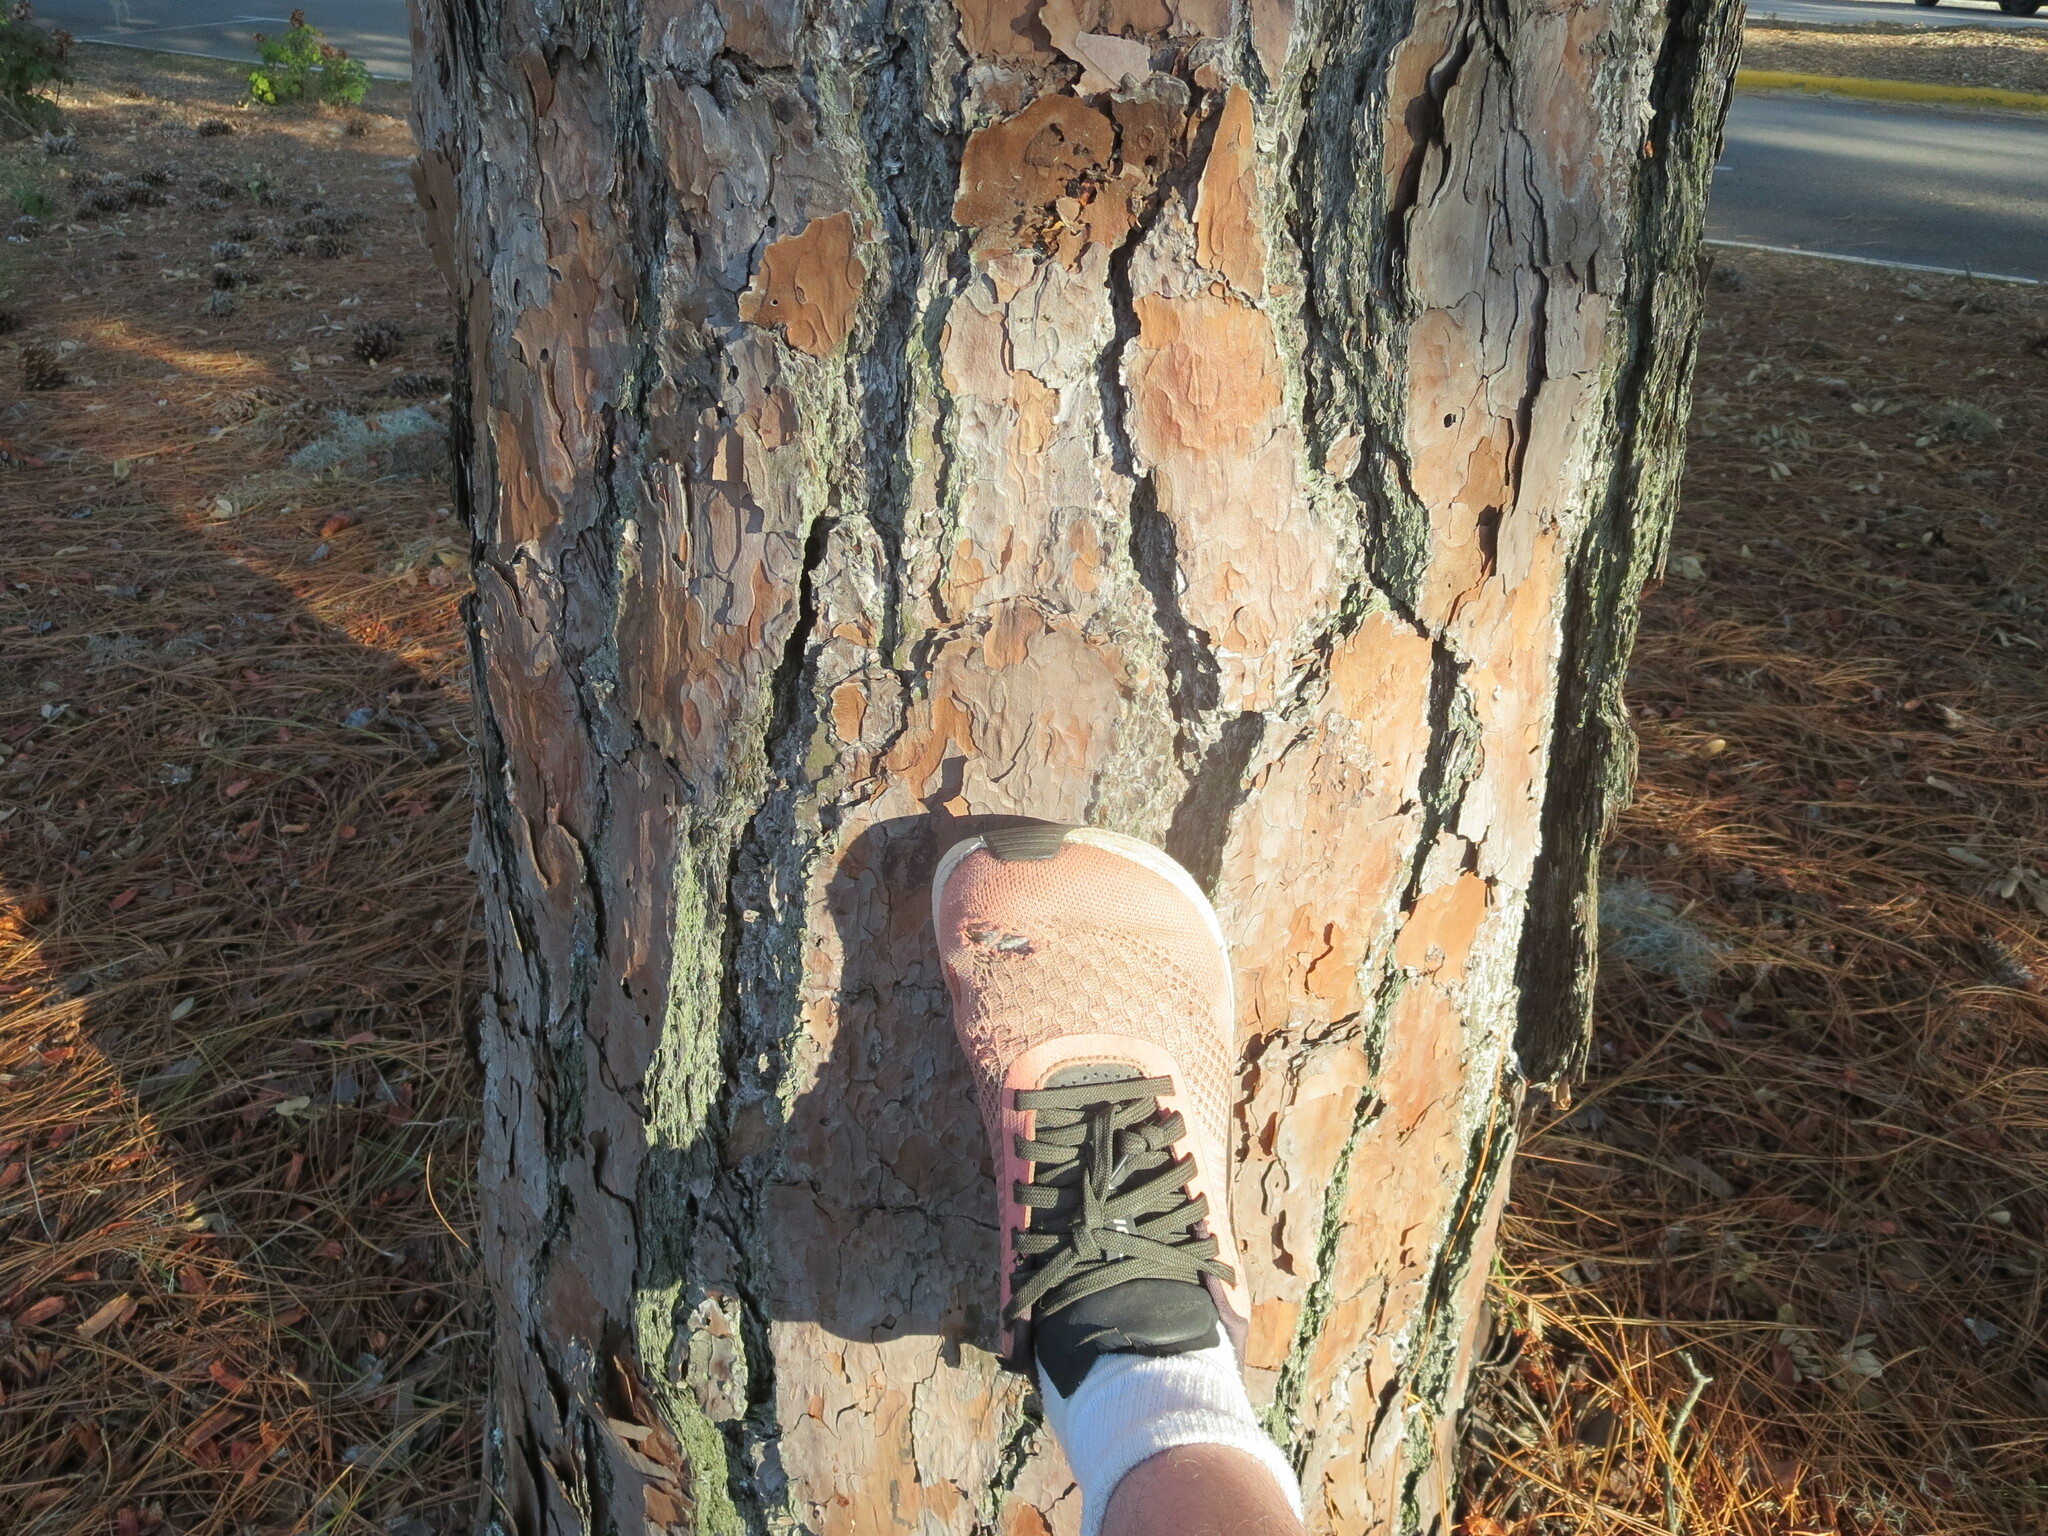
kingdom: Plantae
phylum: Tracheophyta
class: Pinopsida
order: Pinales
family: Pinaceae
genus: Pinus
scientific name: Pinus palustris
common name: Longleaf pine
